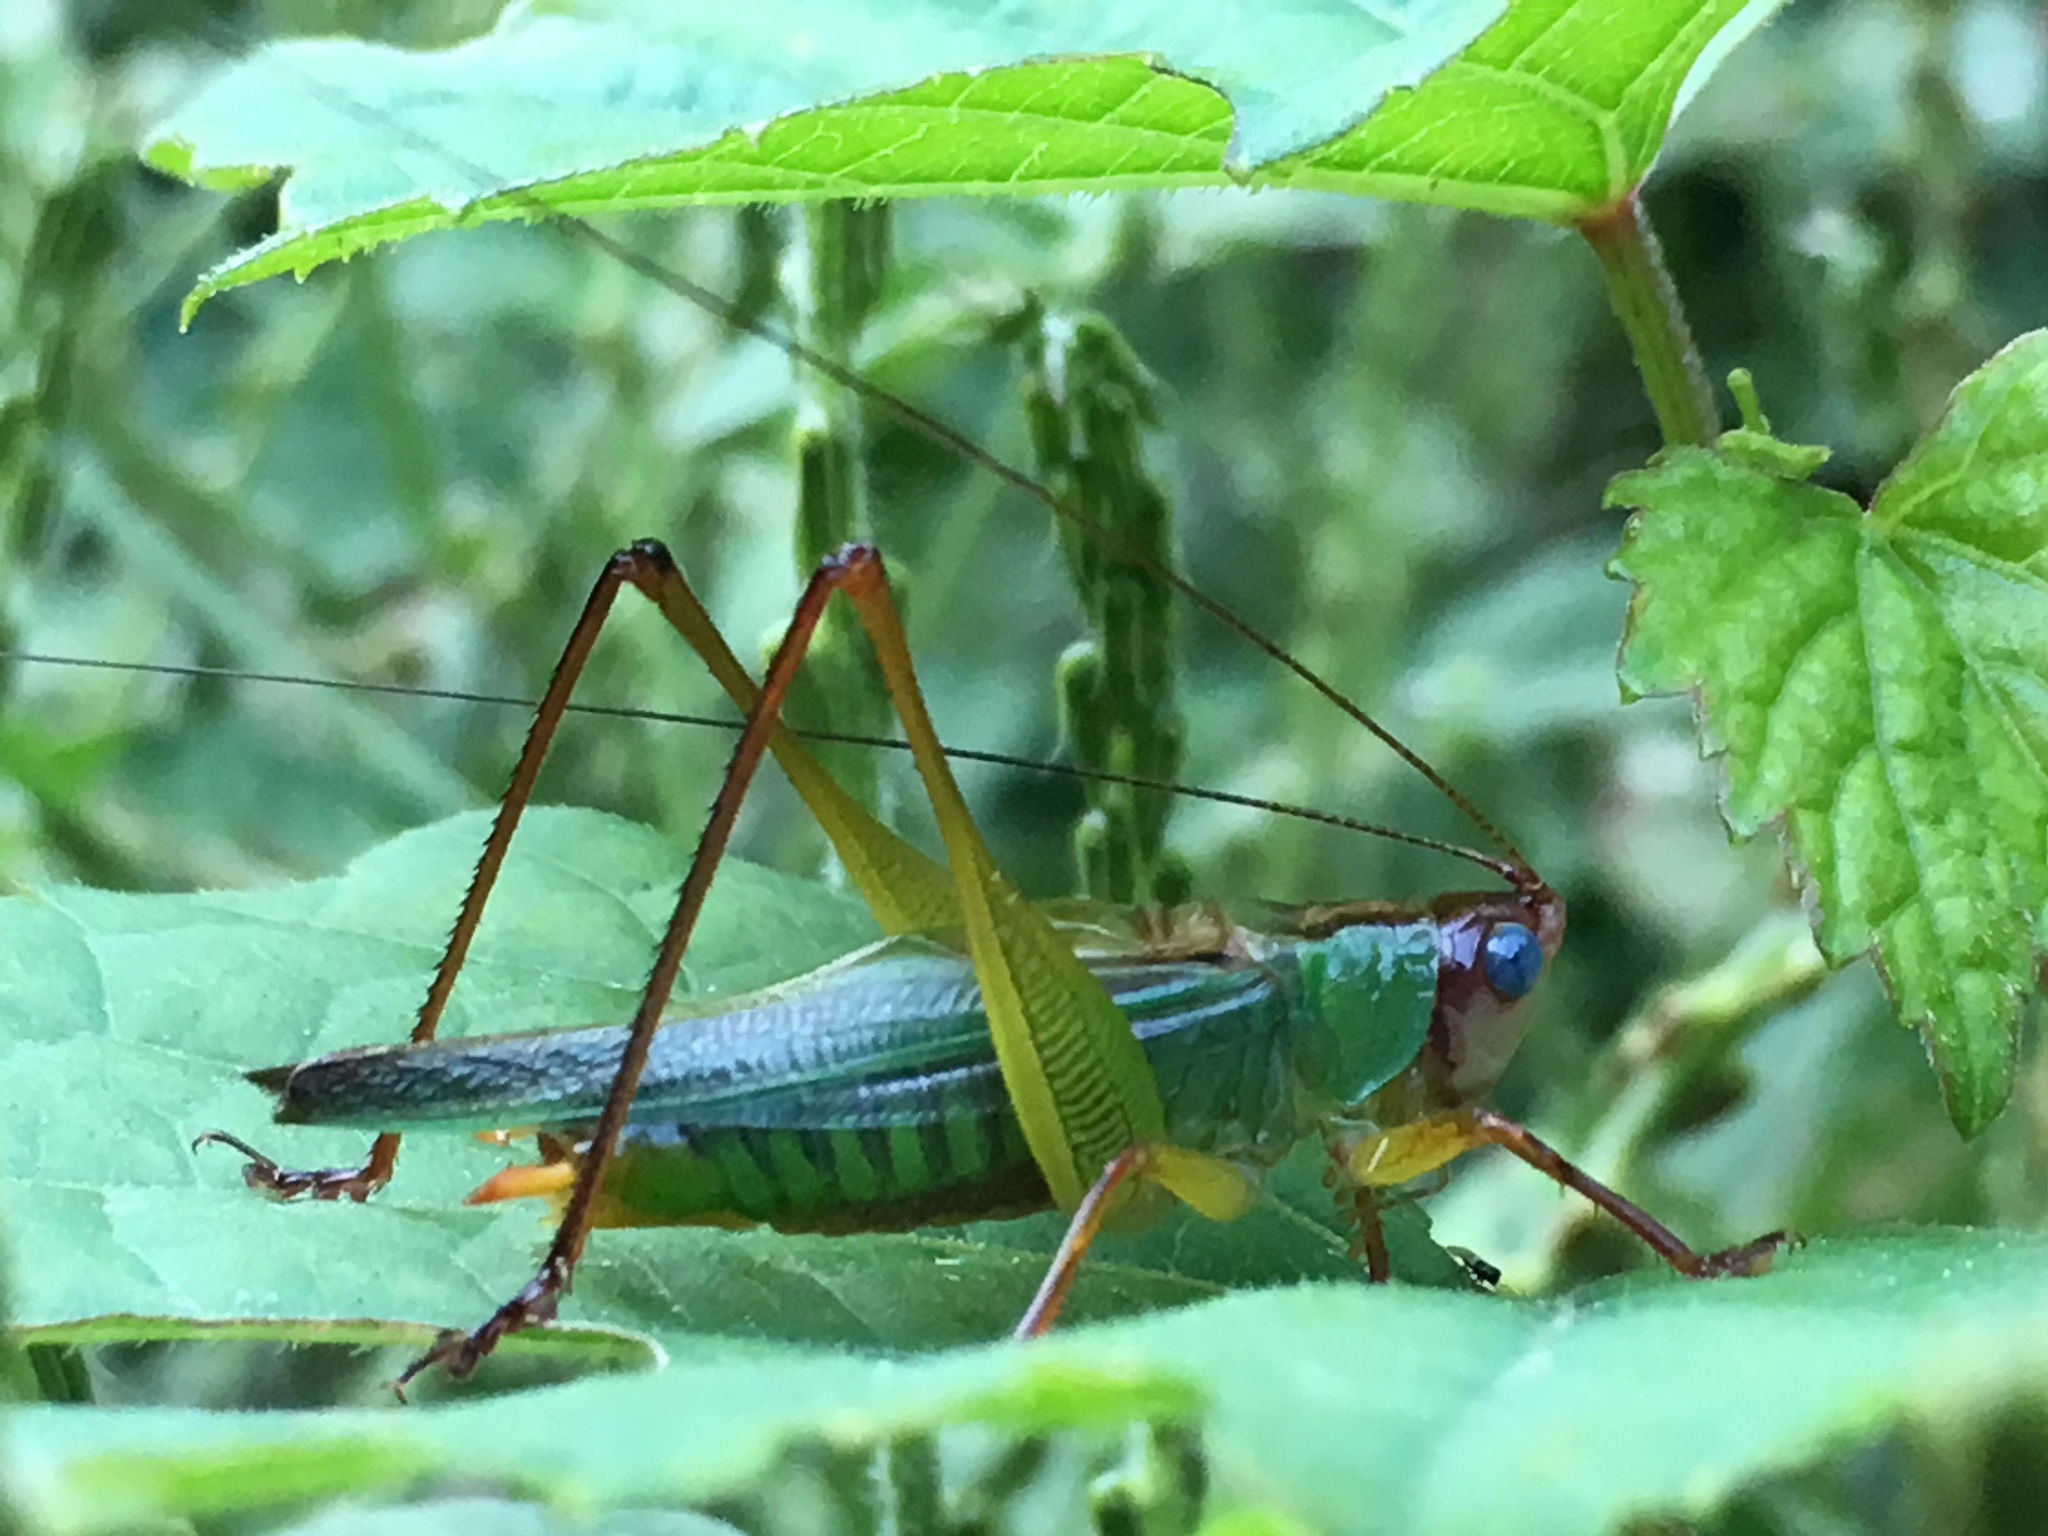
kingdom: Animalia
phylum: Arthropoda
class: Insecta
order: Orthoptera
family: Tettigoniidae
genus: Orchelimum
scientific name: Orchelimum pulchellum
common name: Handsome meadow katydid
